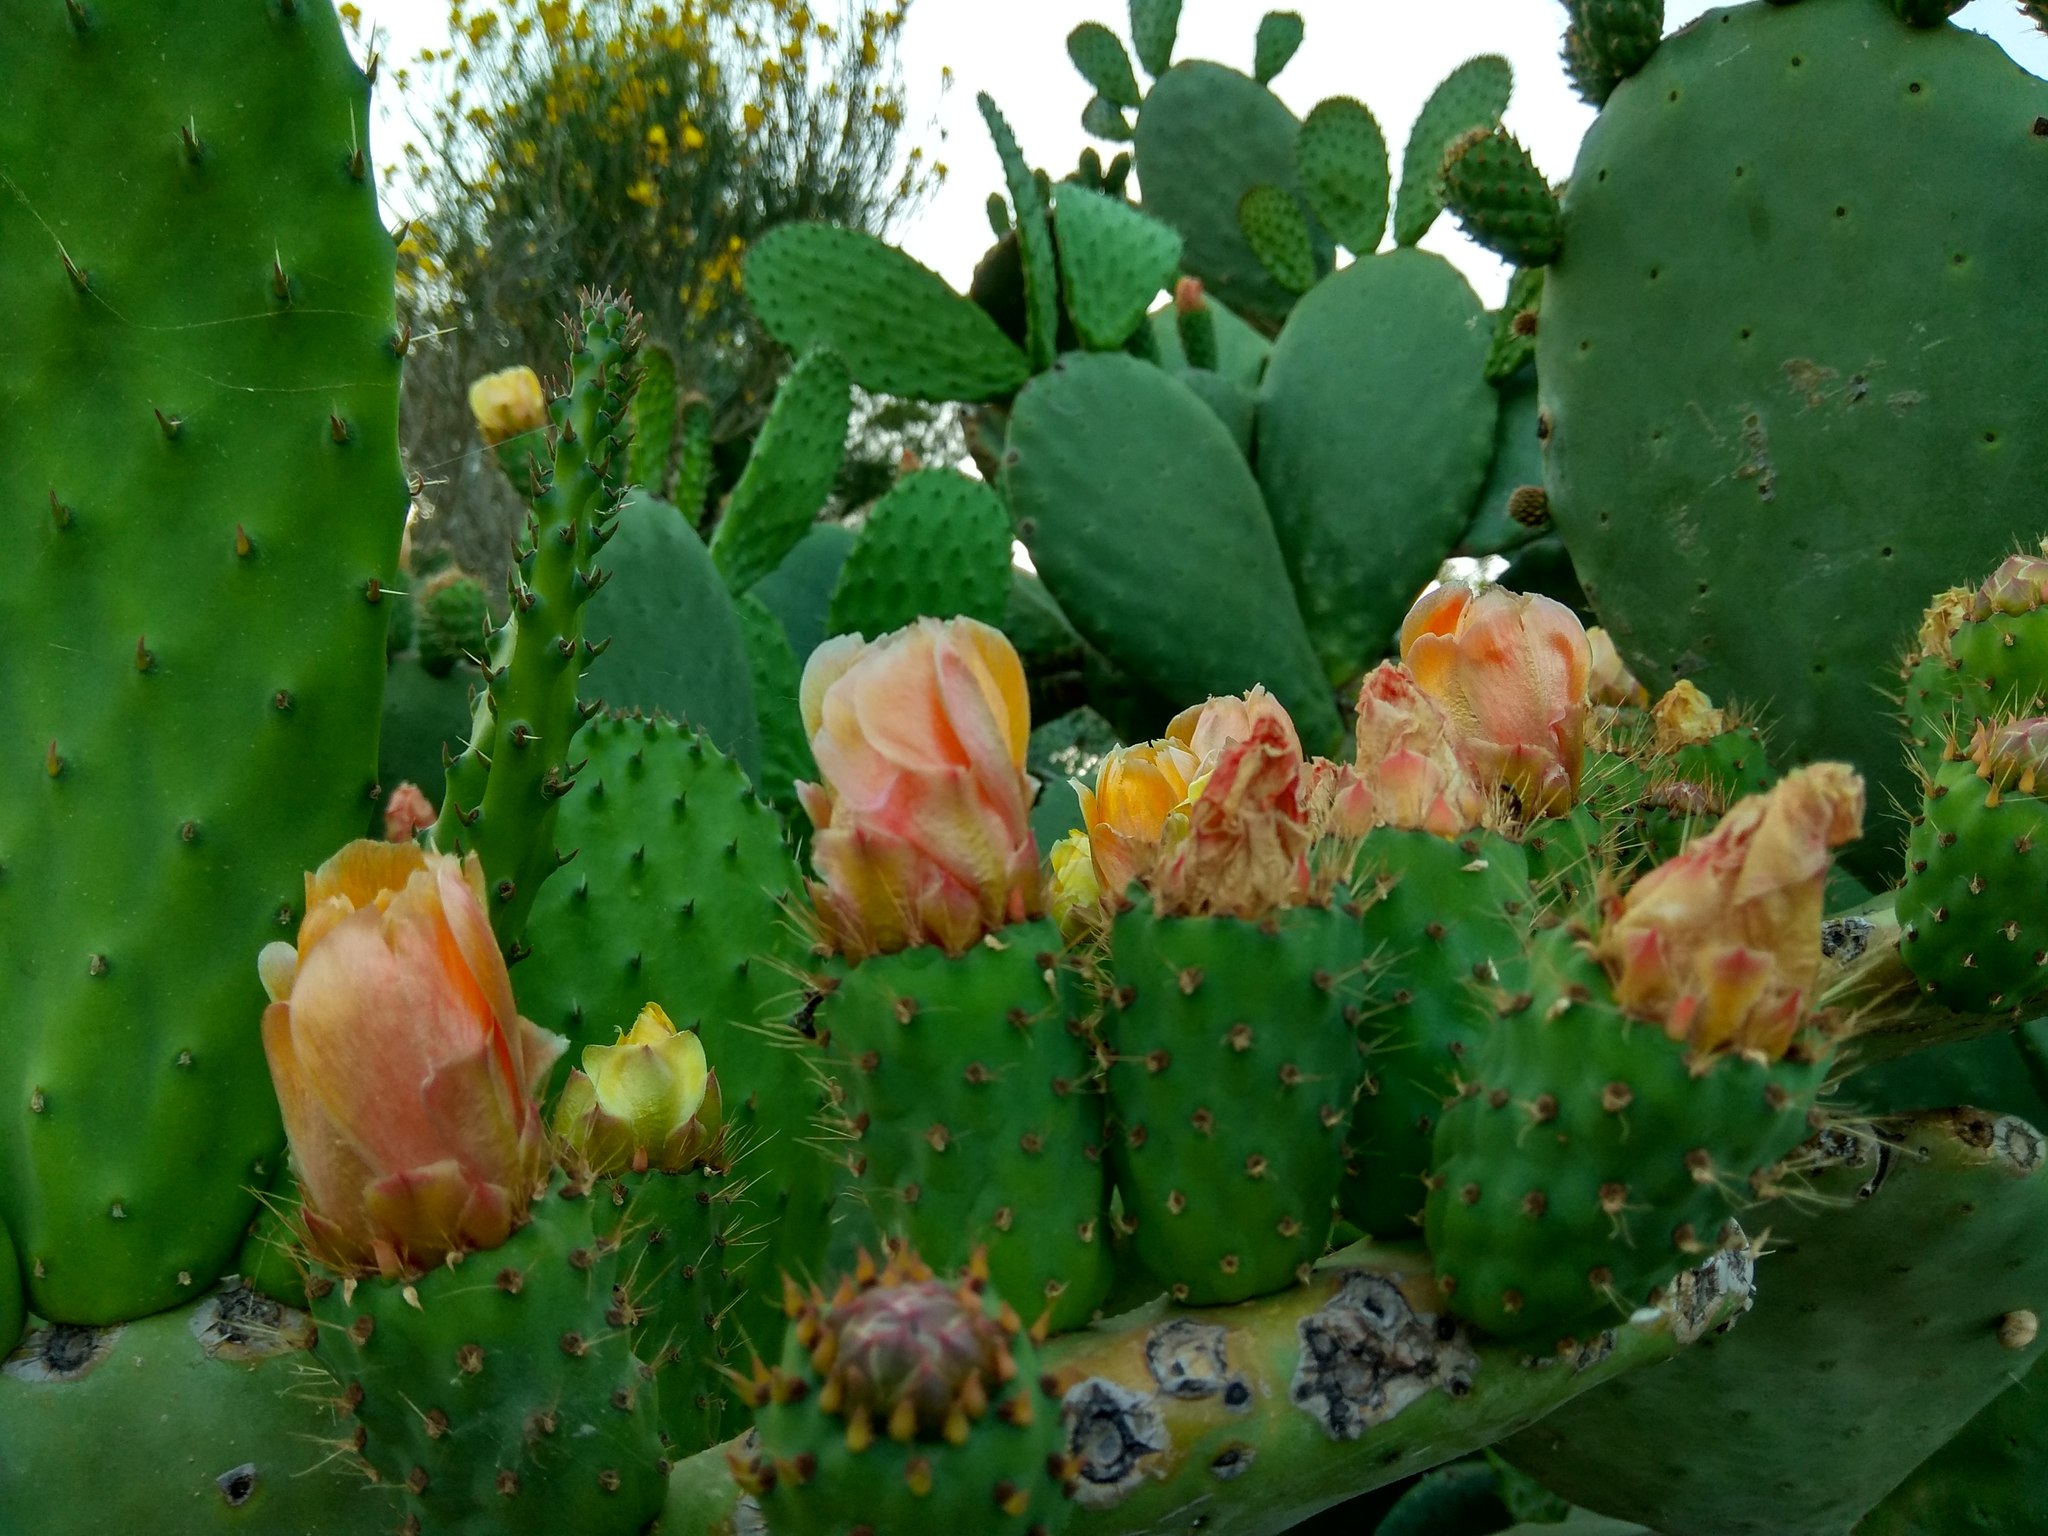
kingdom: Plantae
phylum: Tracheophyta
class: Magnoliopsida
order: Caryophyllales
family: Cactaceae
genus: Opuntia
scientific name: Opuntia ficus-indica
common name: Barbary fig
